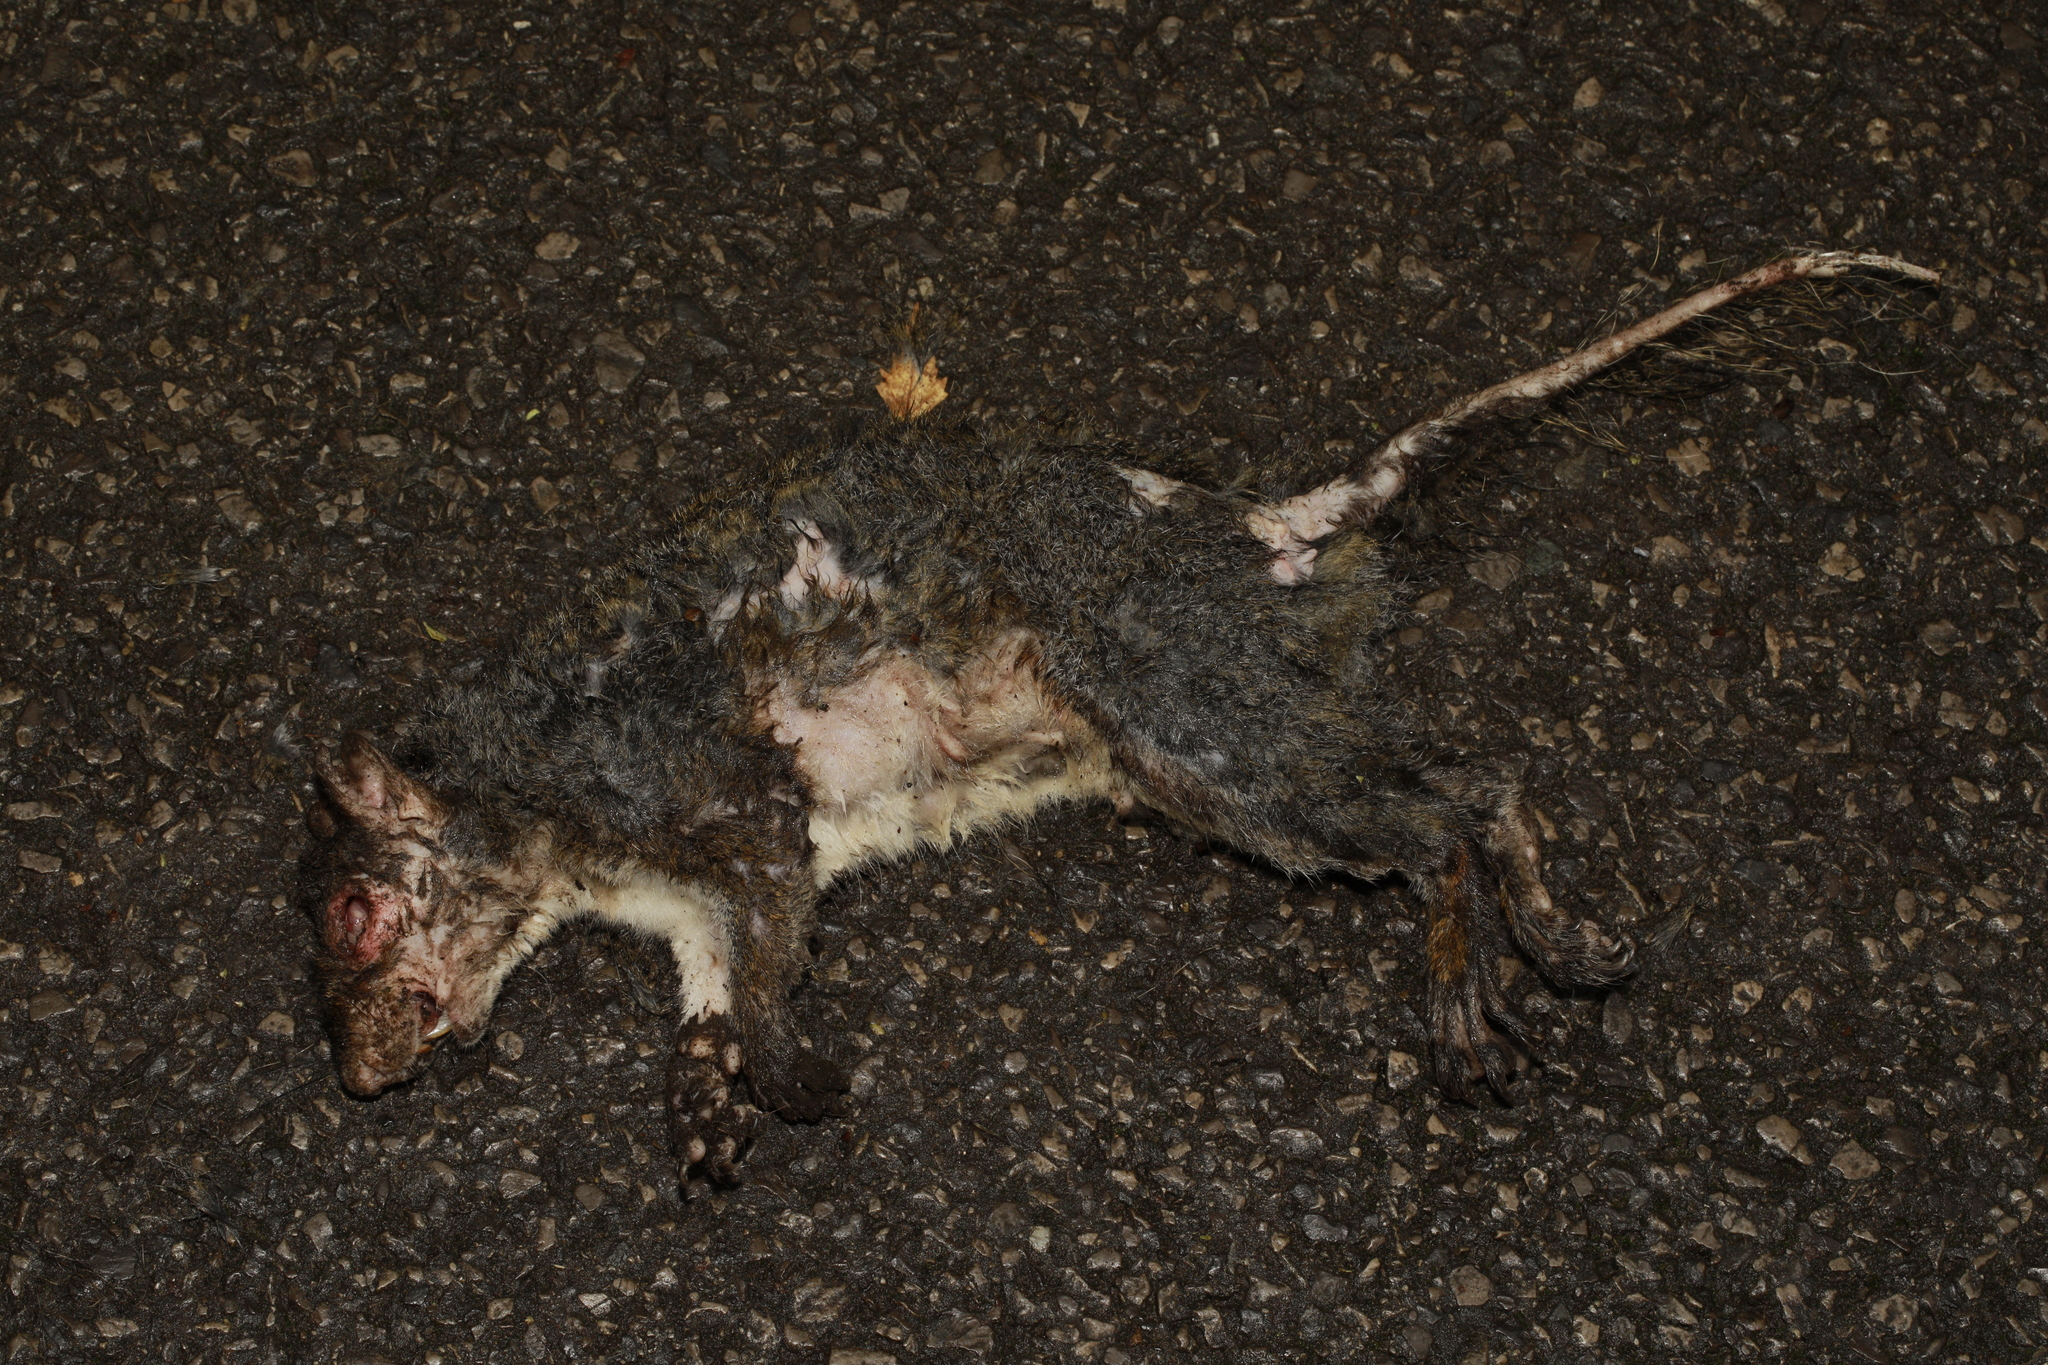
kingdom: Animalia
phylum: Chordata
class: Mammalia
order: Rodentia
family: Sciuridae
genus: Sciurus
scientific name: Sciurus carolinensis
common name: Eastern gray squirrel
